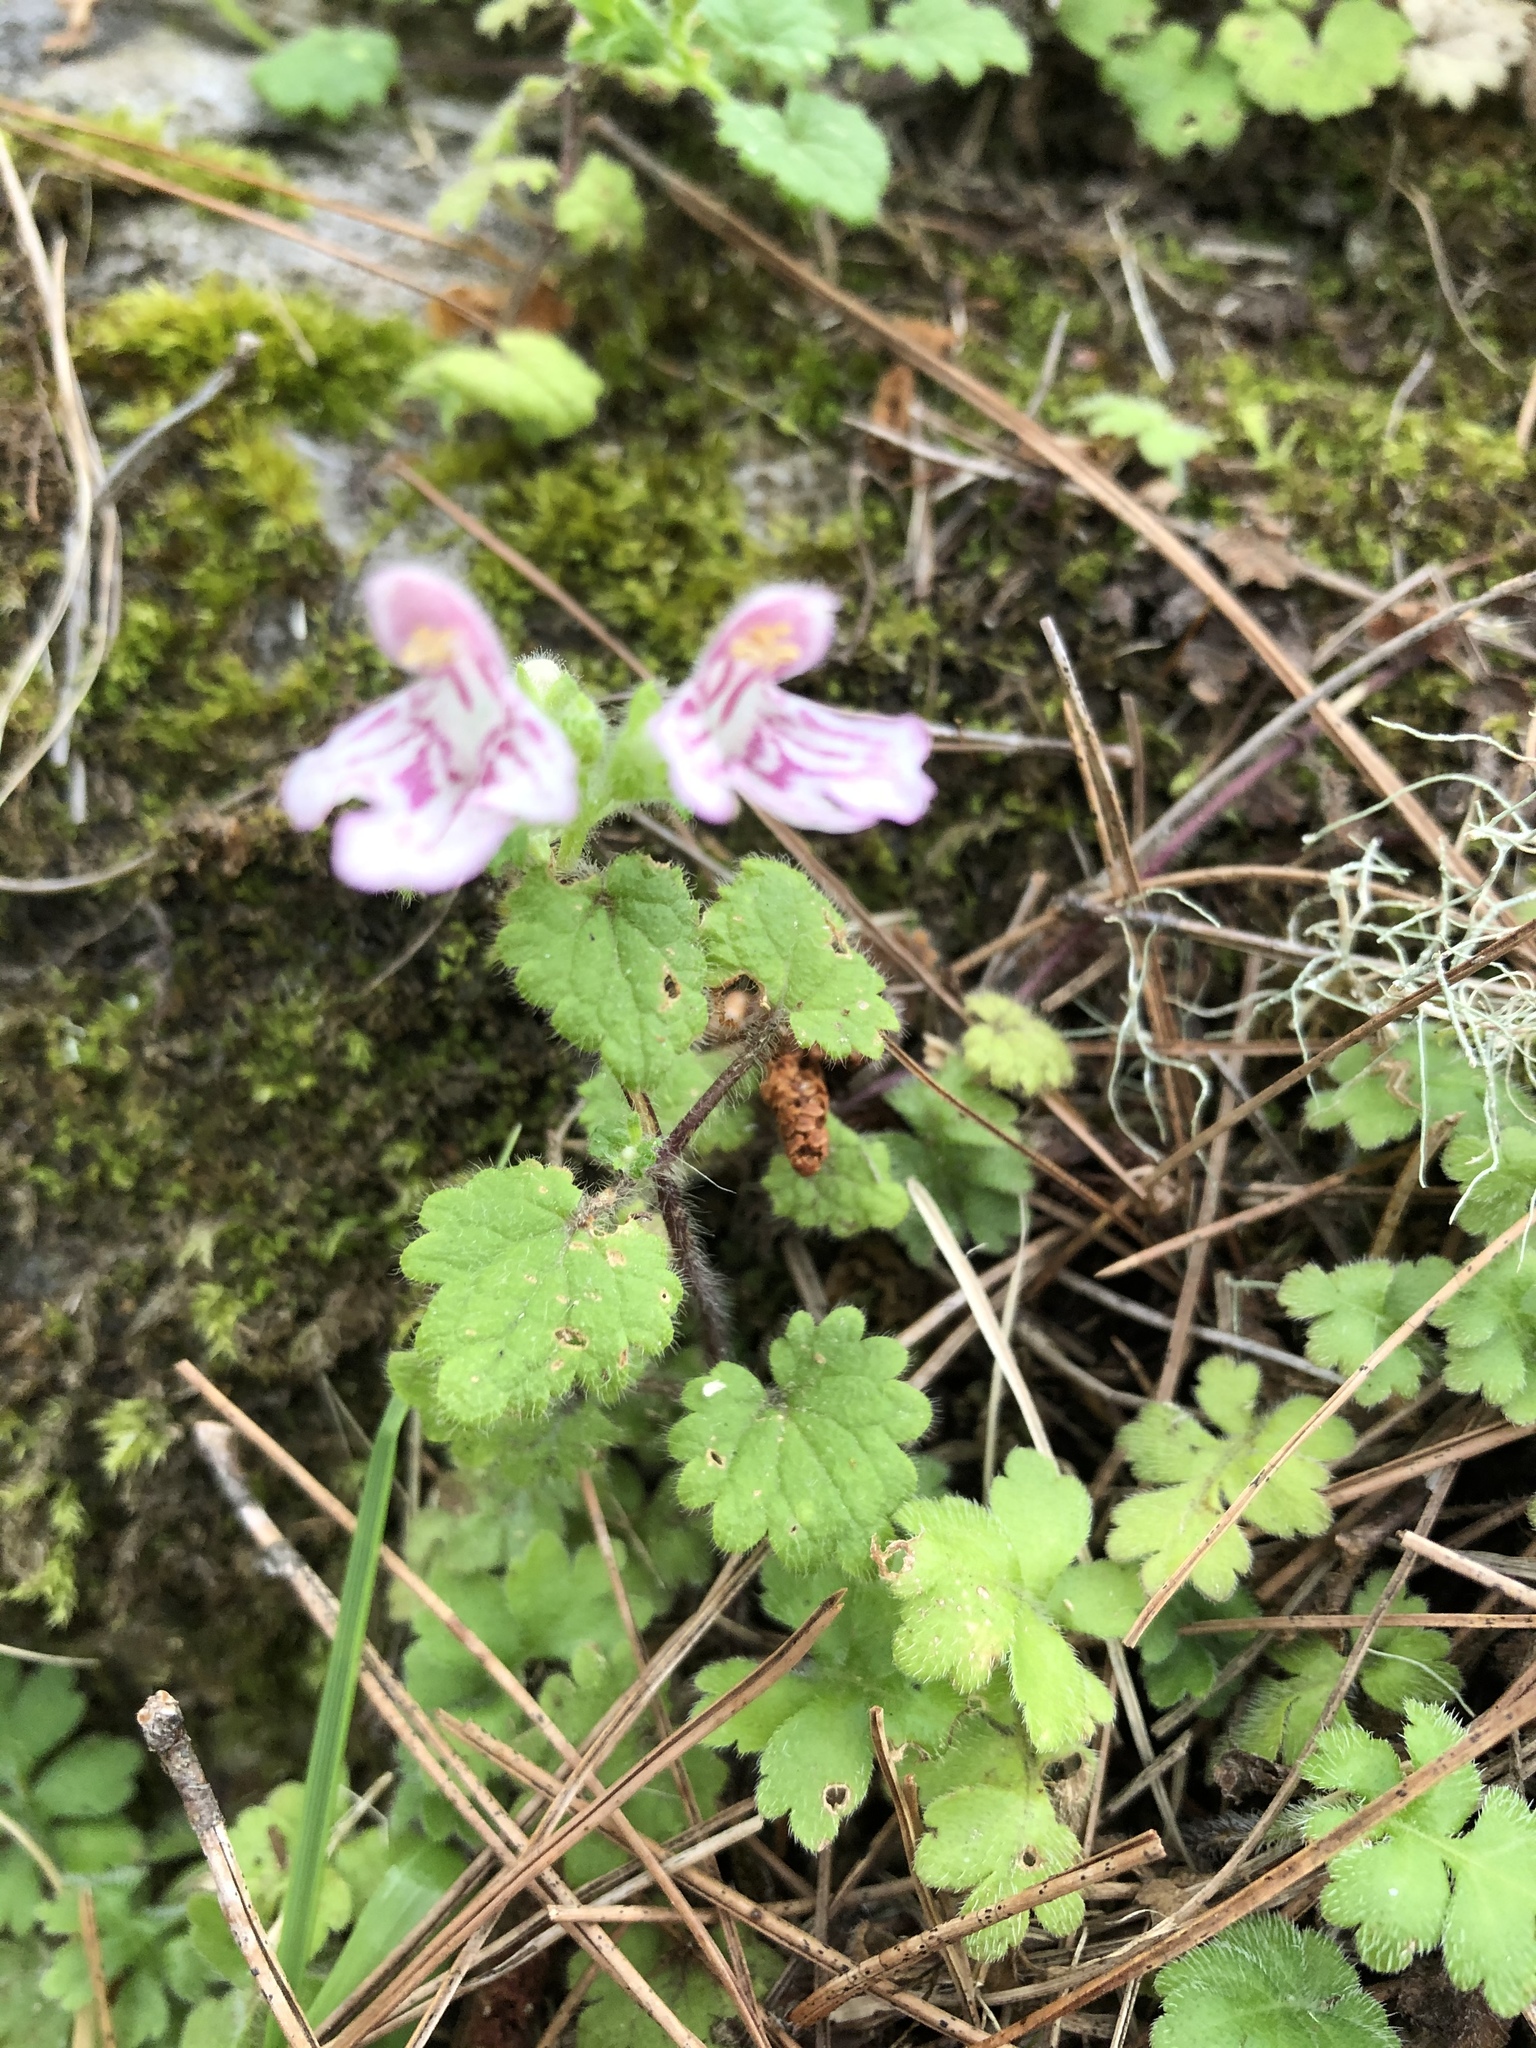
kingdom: Plantae
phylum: Tracheophyta
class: Magnoliopsida
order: Lamiales
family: Lamiaceae
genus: Suzukia
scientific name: Suzukia shikikunensis
